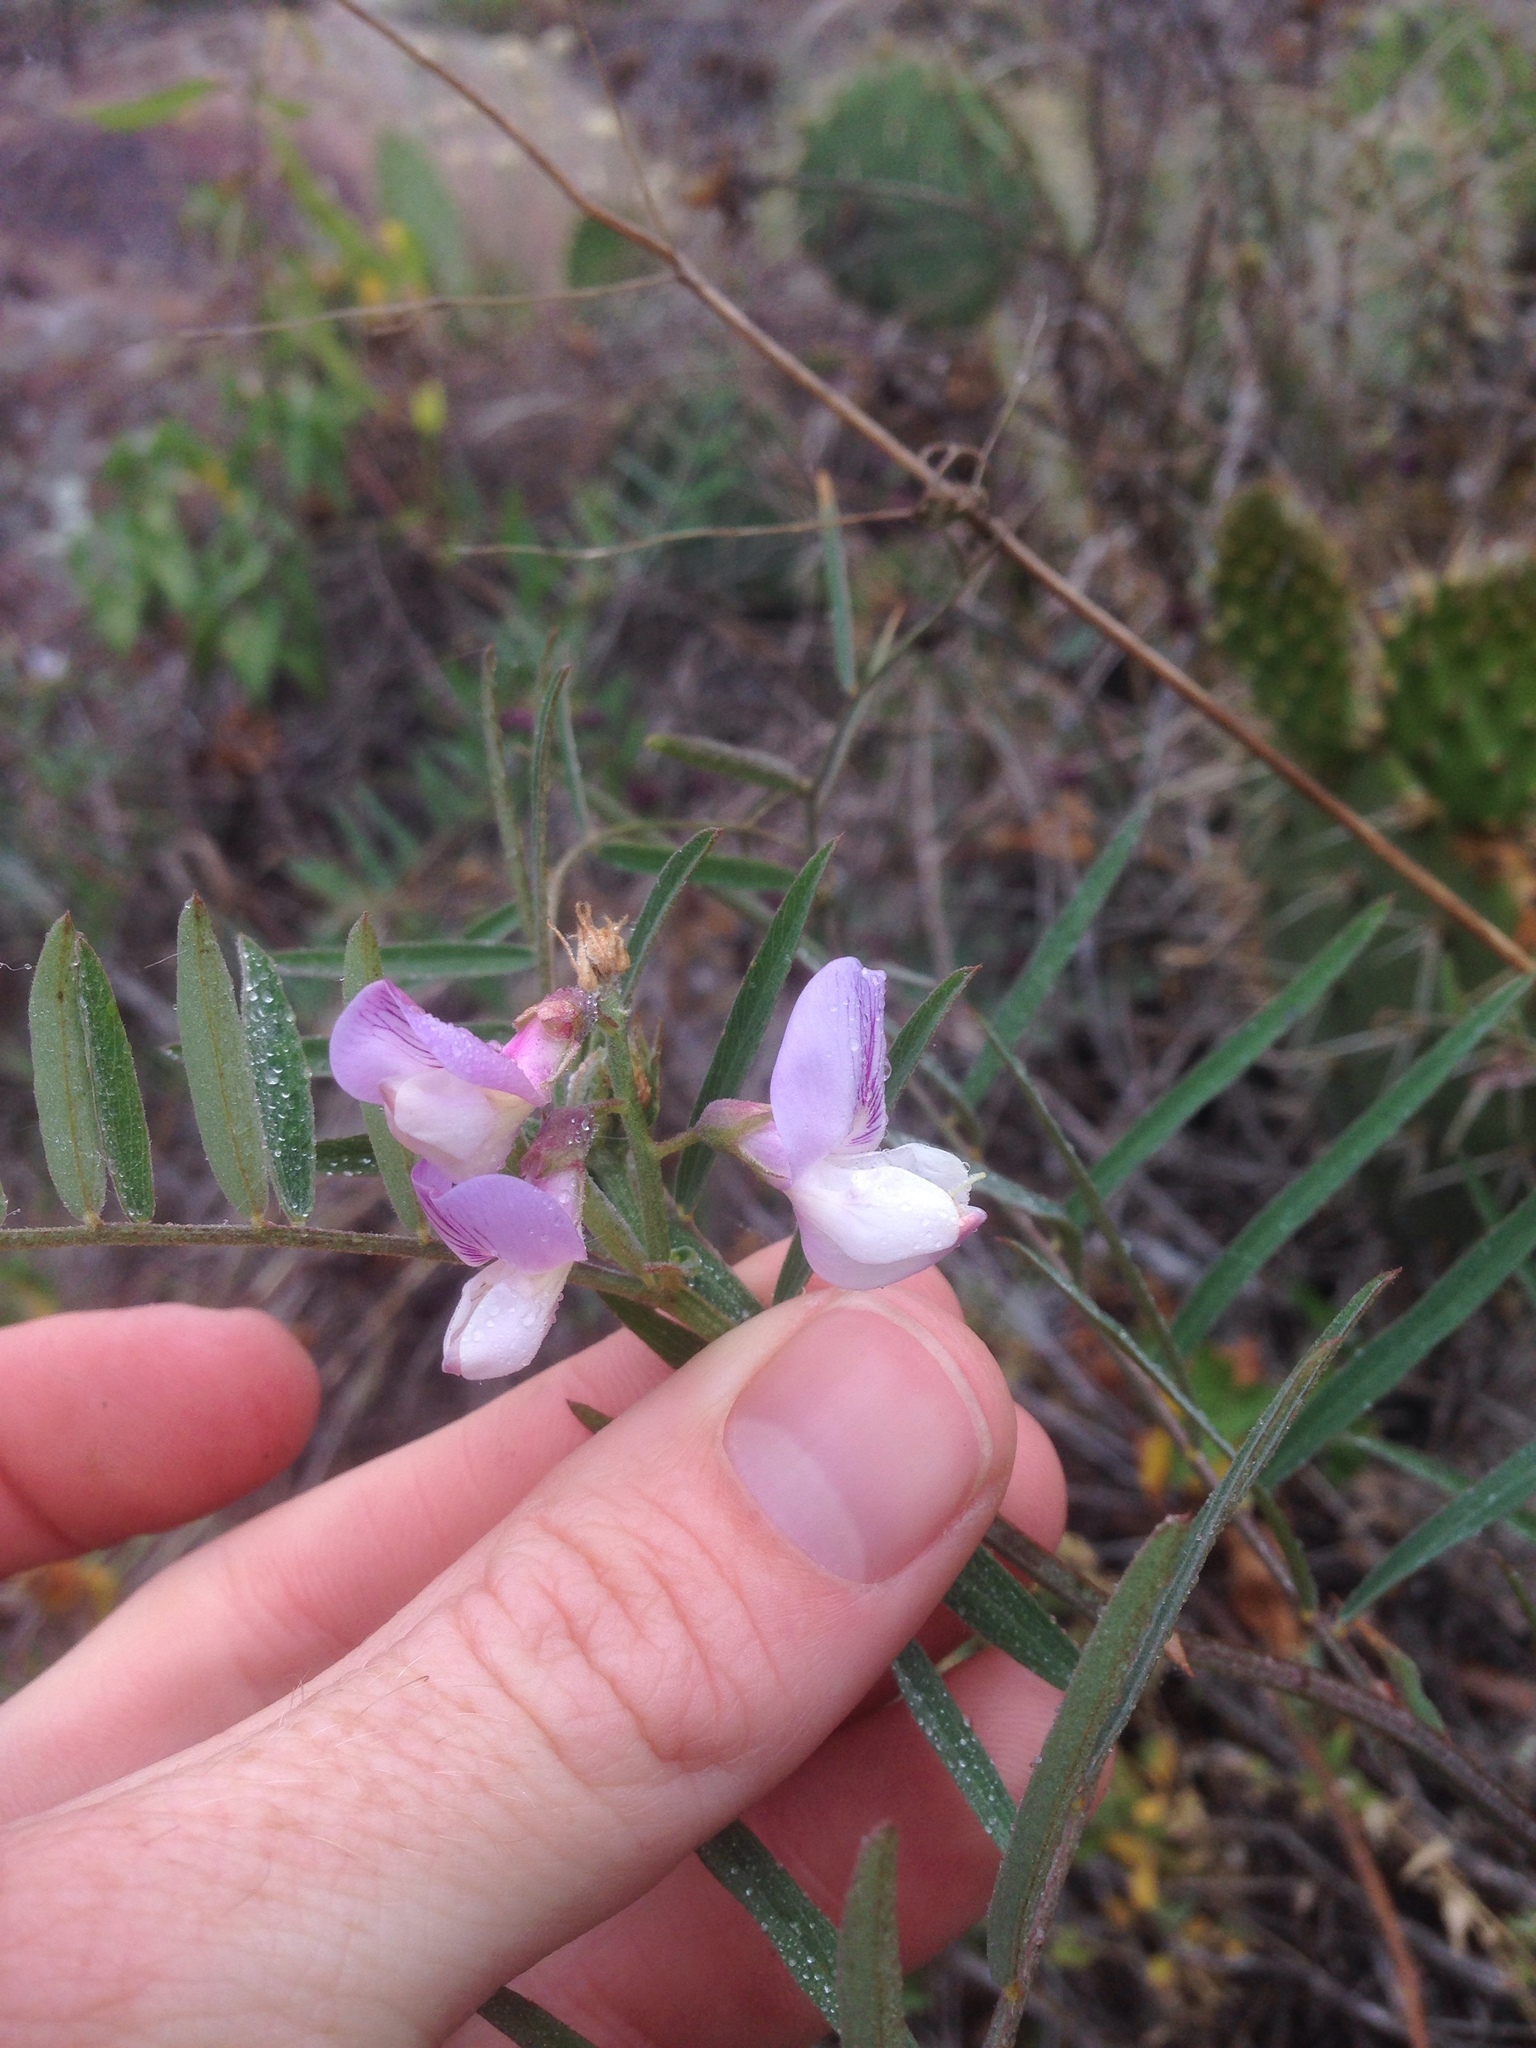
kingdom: Plantae
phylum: Tracheophyta
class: Magnoliopsida
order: Fabales
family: Fabaceae
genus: Lathyrus
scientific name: Lathyrus vestitus
